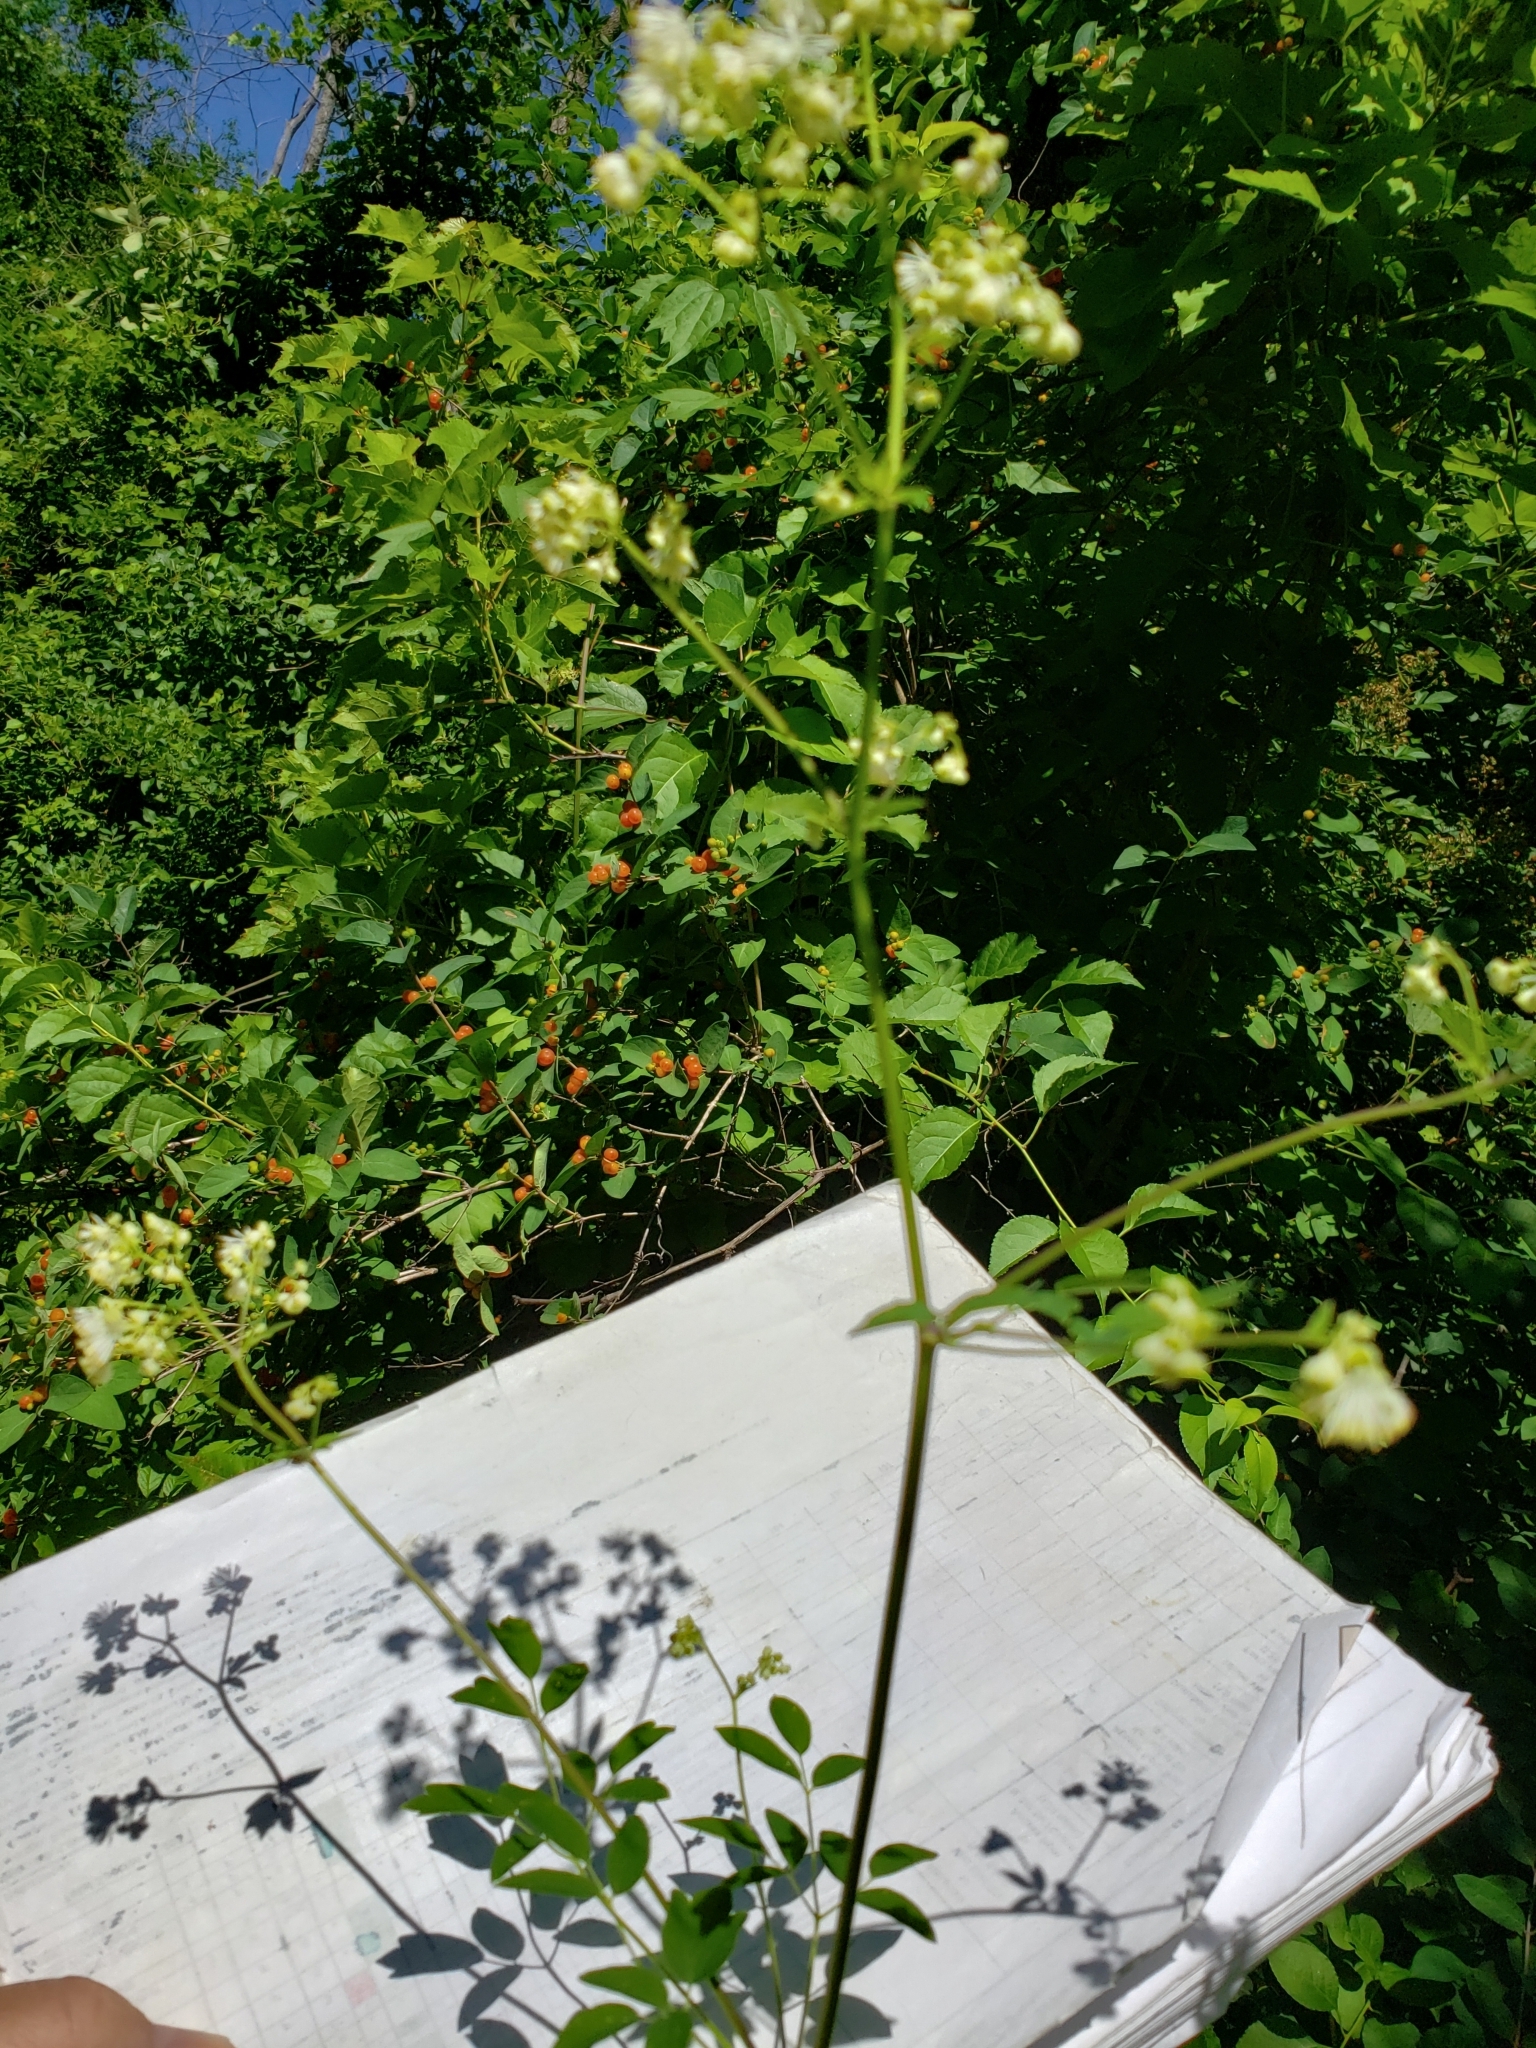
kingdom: Plantae
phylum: Tracheophyta
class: Magnoliopsida
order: Ranunculales
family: Ranunculaceae
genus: Thalictrum
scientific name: Thalictrum pubescens
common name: King-of-the-meadow
